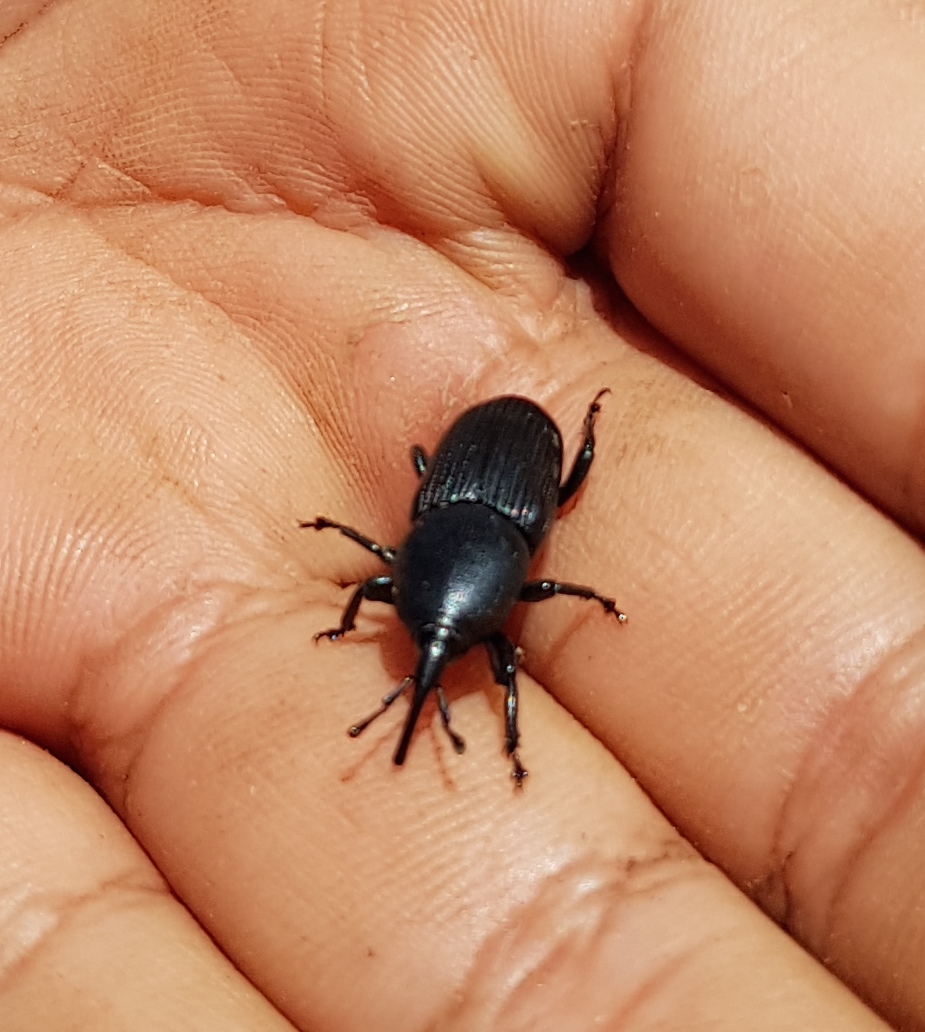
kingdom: Animalia
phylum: Arthropoda
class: Insecta
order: Coleoptera
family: Dryophthoridae
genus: Scyphophorus
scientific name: Scyphophorus acupunctatus
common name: Weevil
